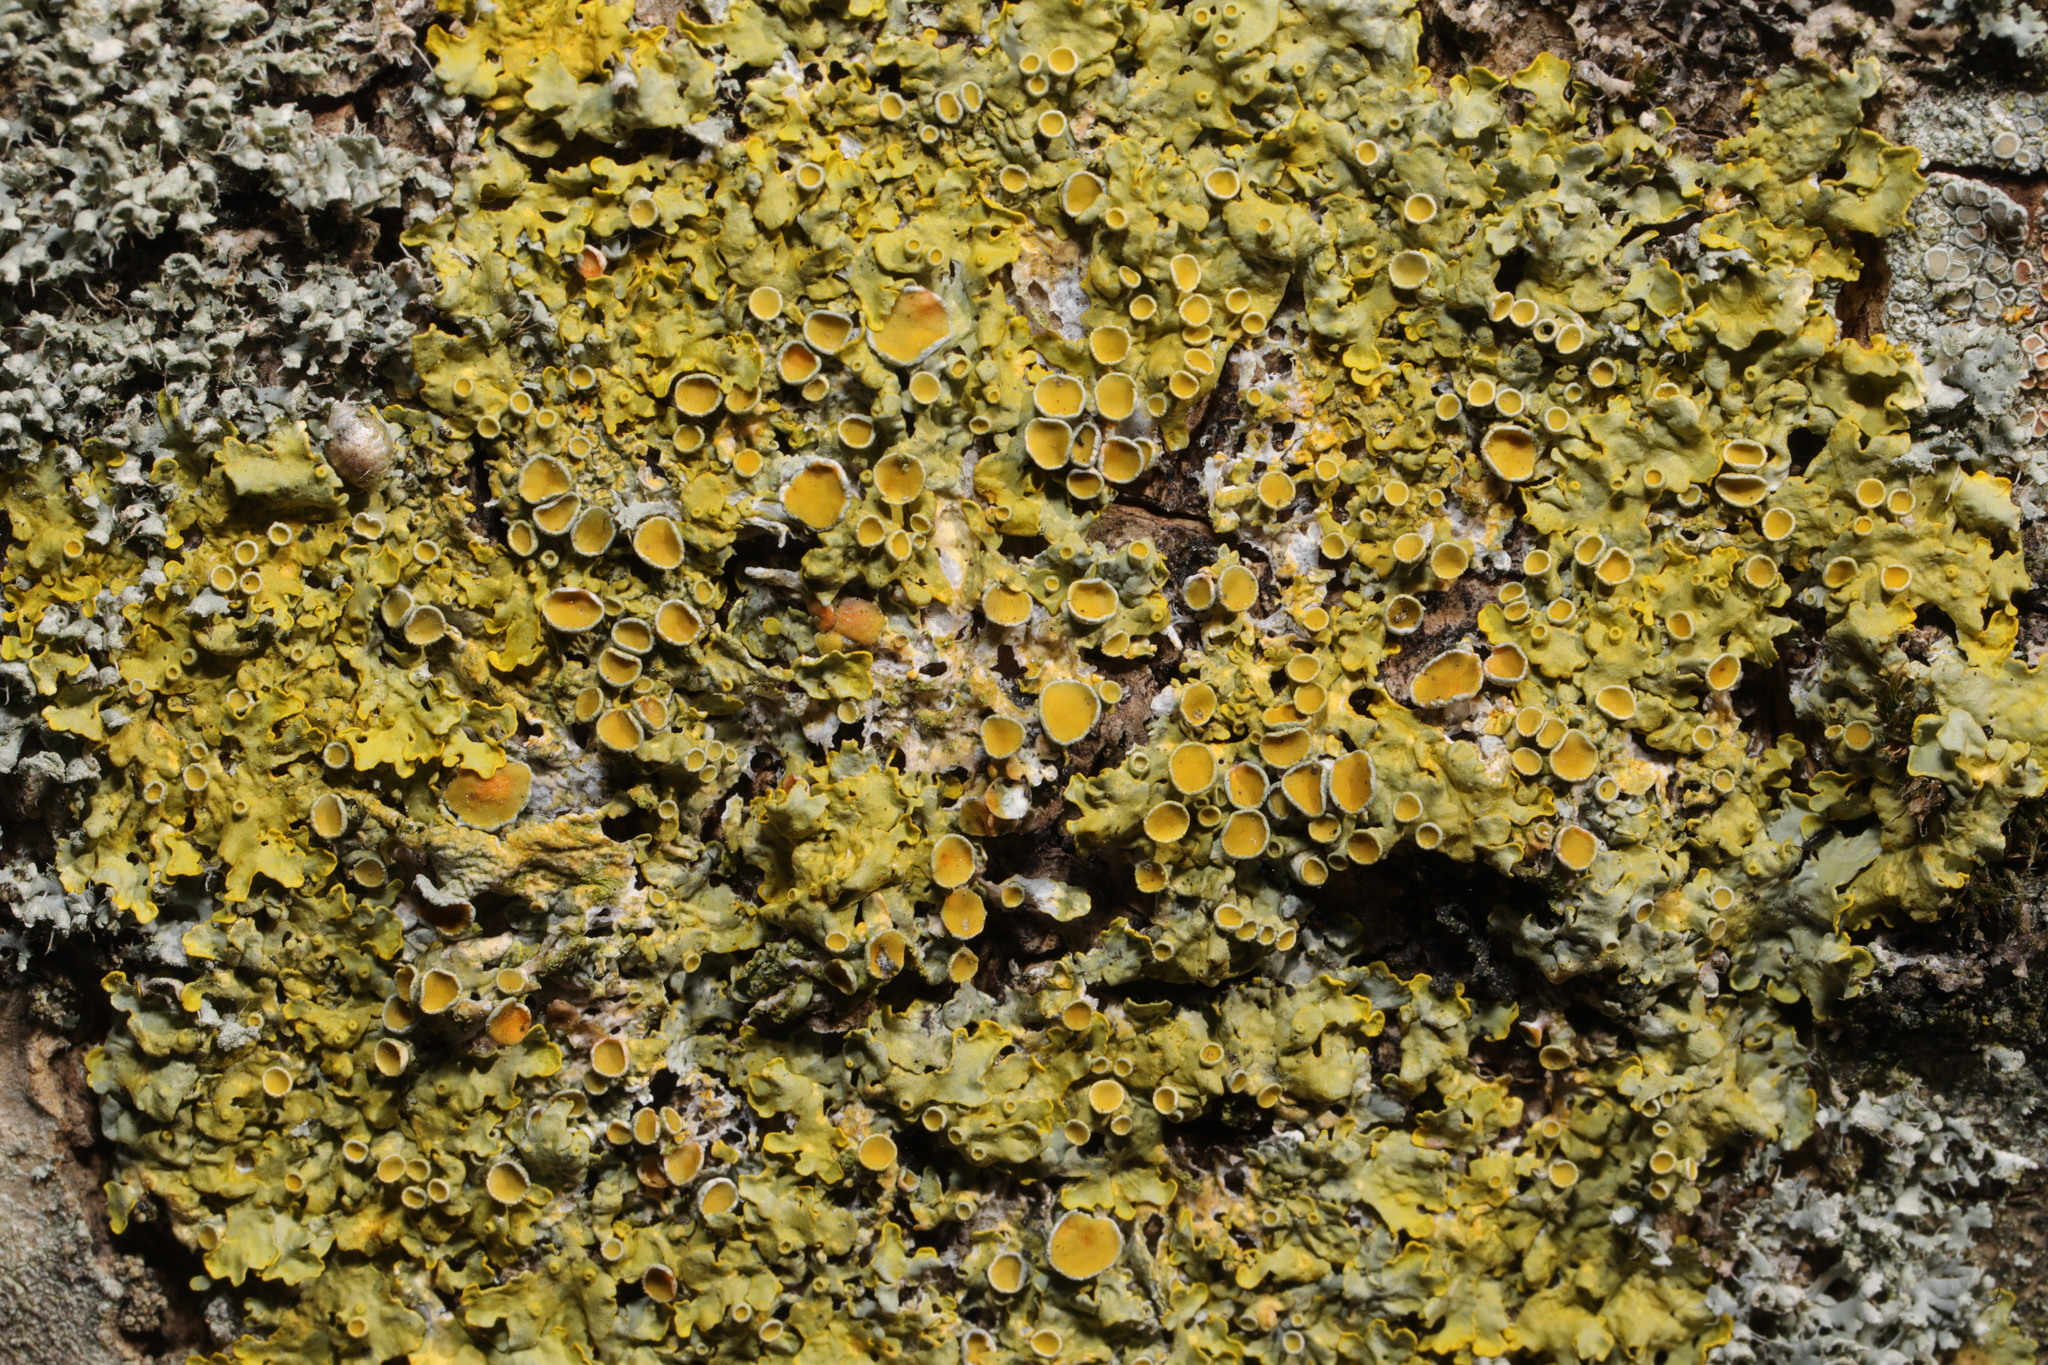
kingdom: Fungi
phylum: Ascomycota
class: Lecanoromycetes
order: Teloschistales
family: Teloschistaceae
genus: Xanthoria
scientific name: Xanthoria parietina
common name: Common orange lichen
